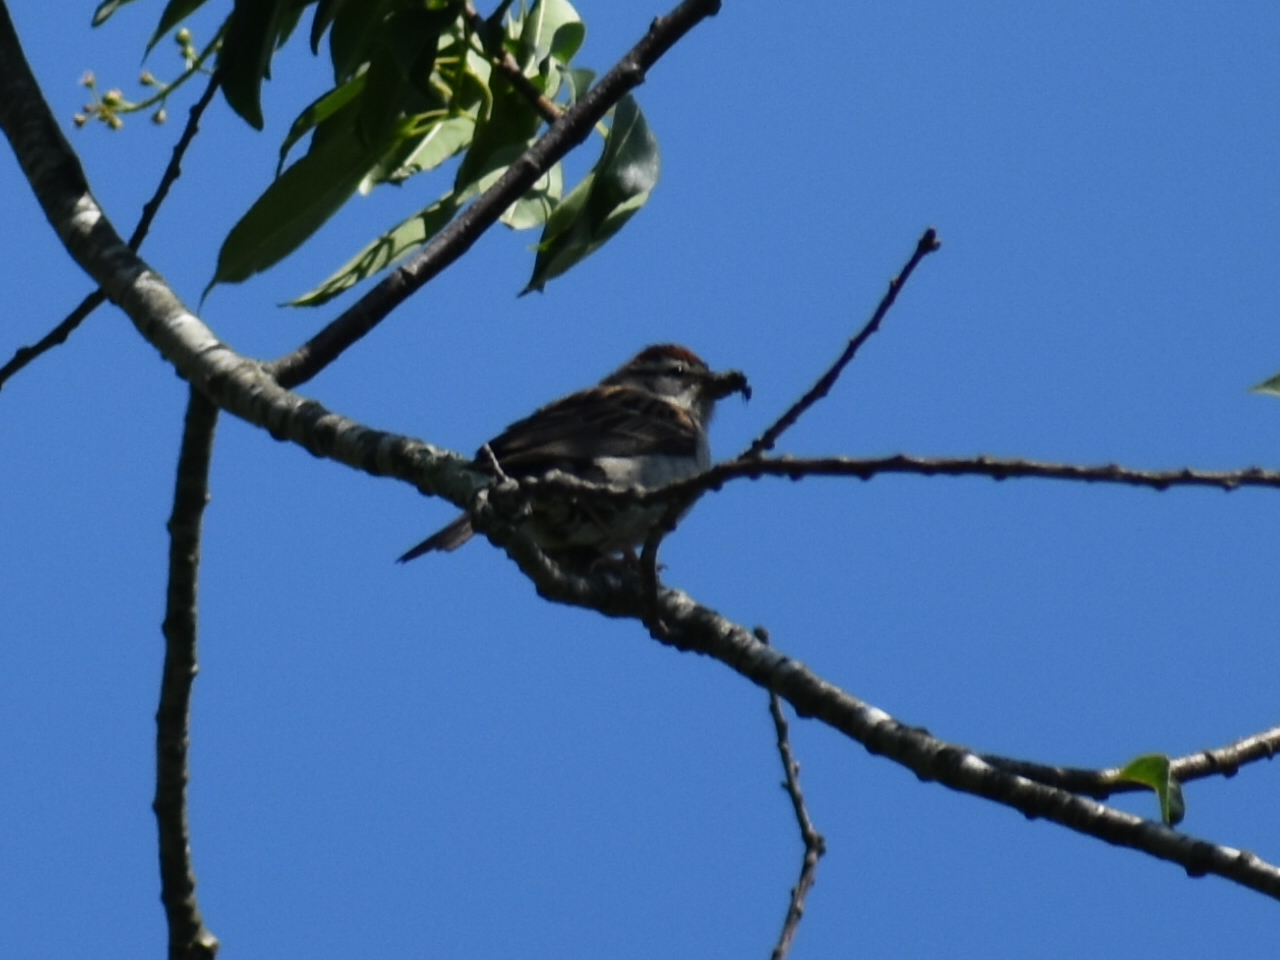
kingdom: Animalia
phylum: Chordata
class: Aves
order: Passeriformes
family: Passerellidae
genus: Spizella
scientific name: Spizella passerina
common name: Chipping sparrow
